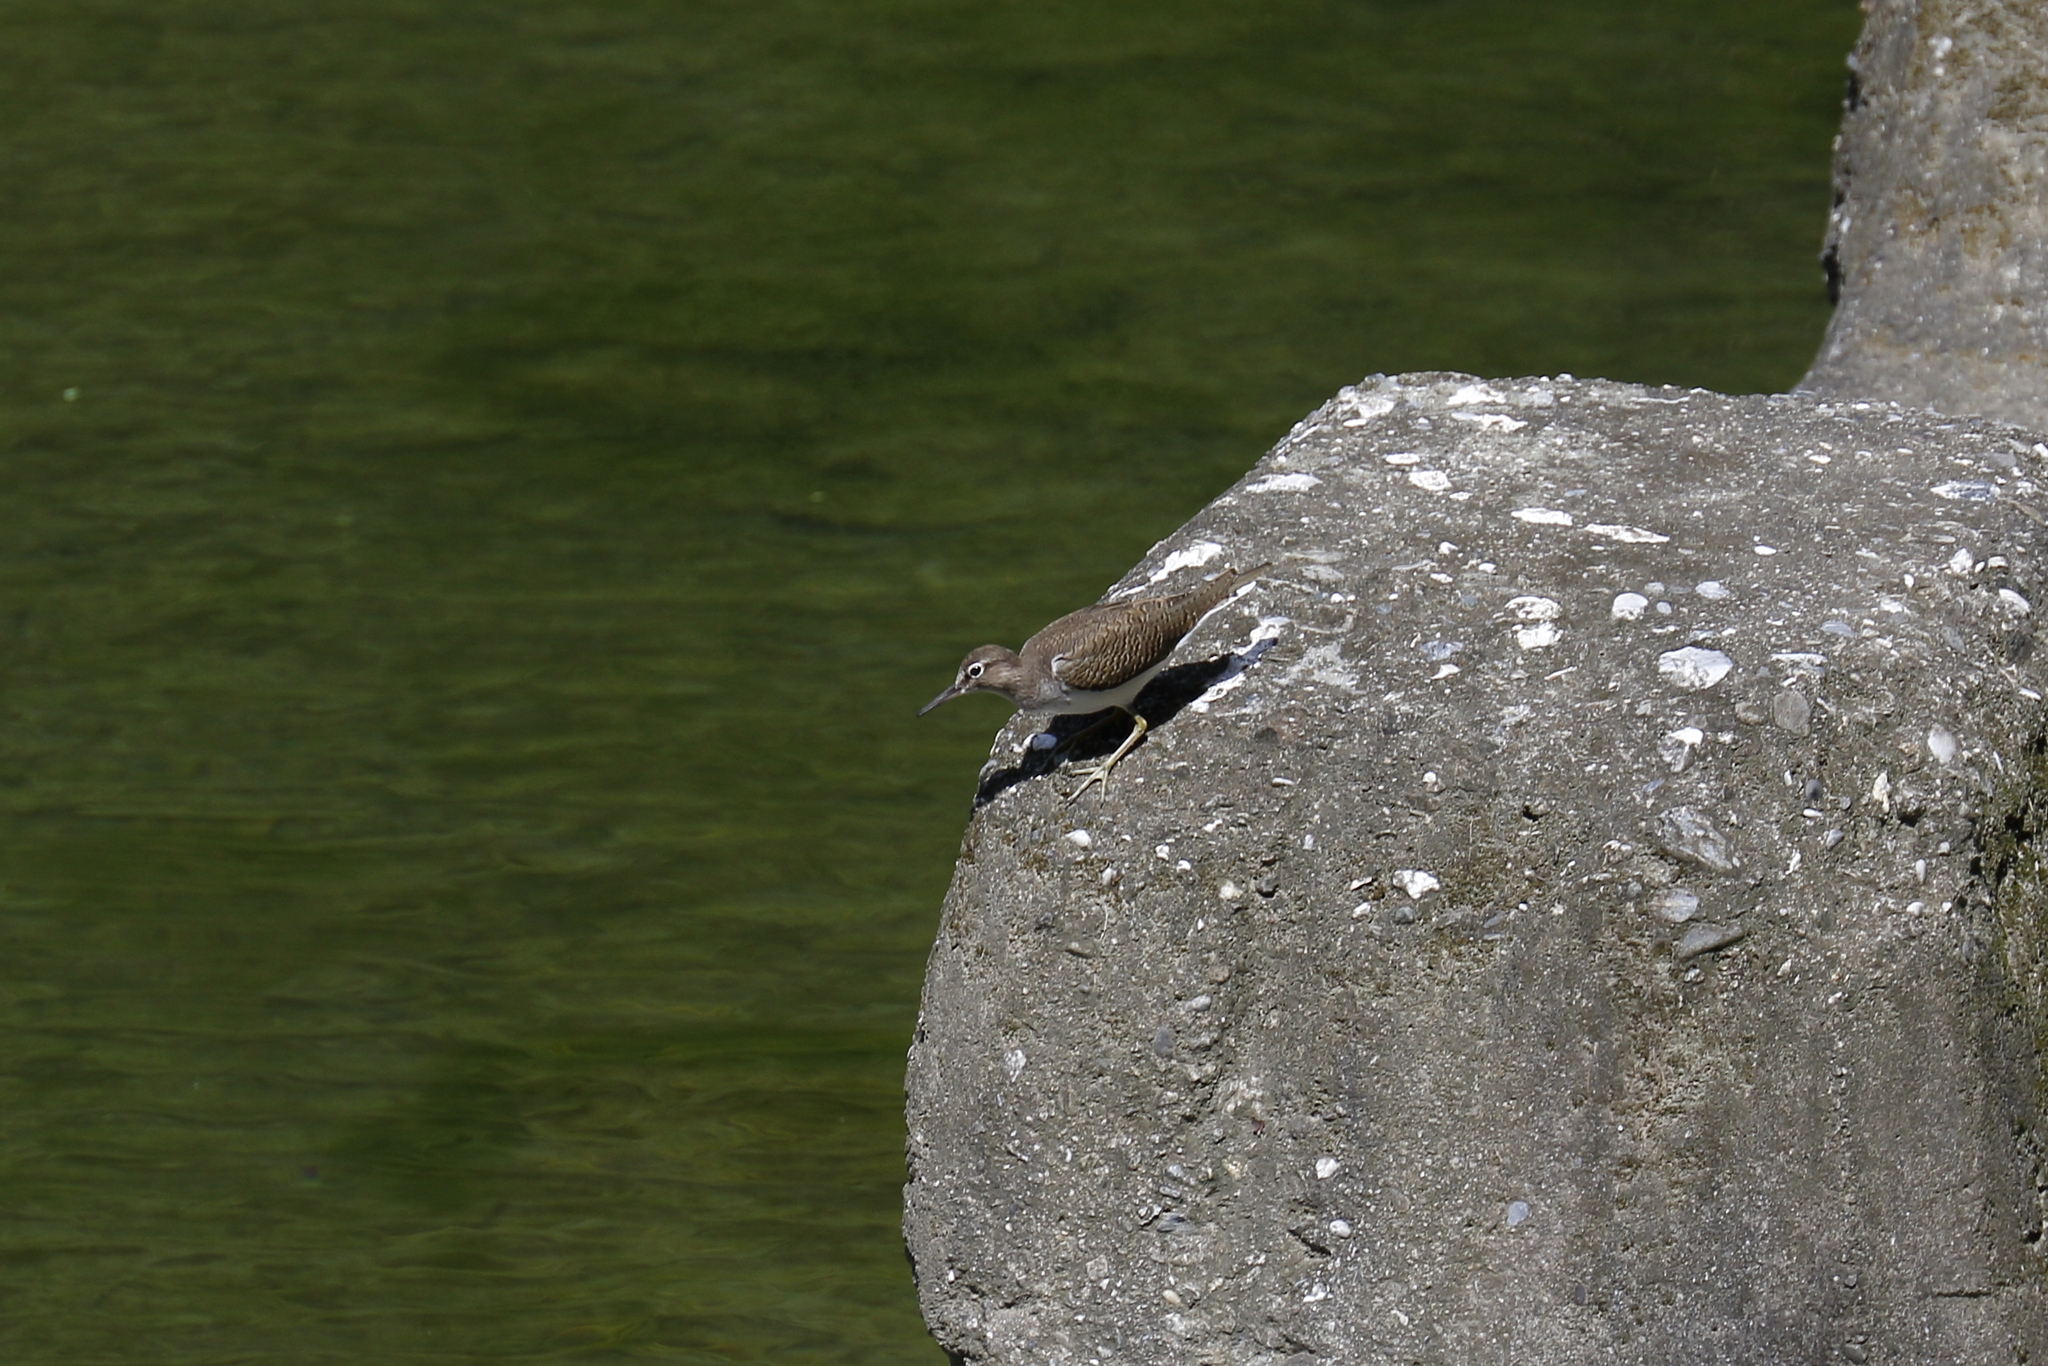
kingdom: Animalia
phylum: Chordata
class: Aves
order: Charadriiformes
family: Scolopacidae
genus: Actitis
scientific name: Actitis hypoleucos
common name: Common sandpiper
